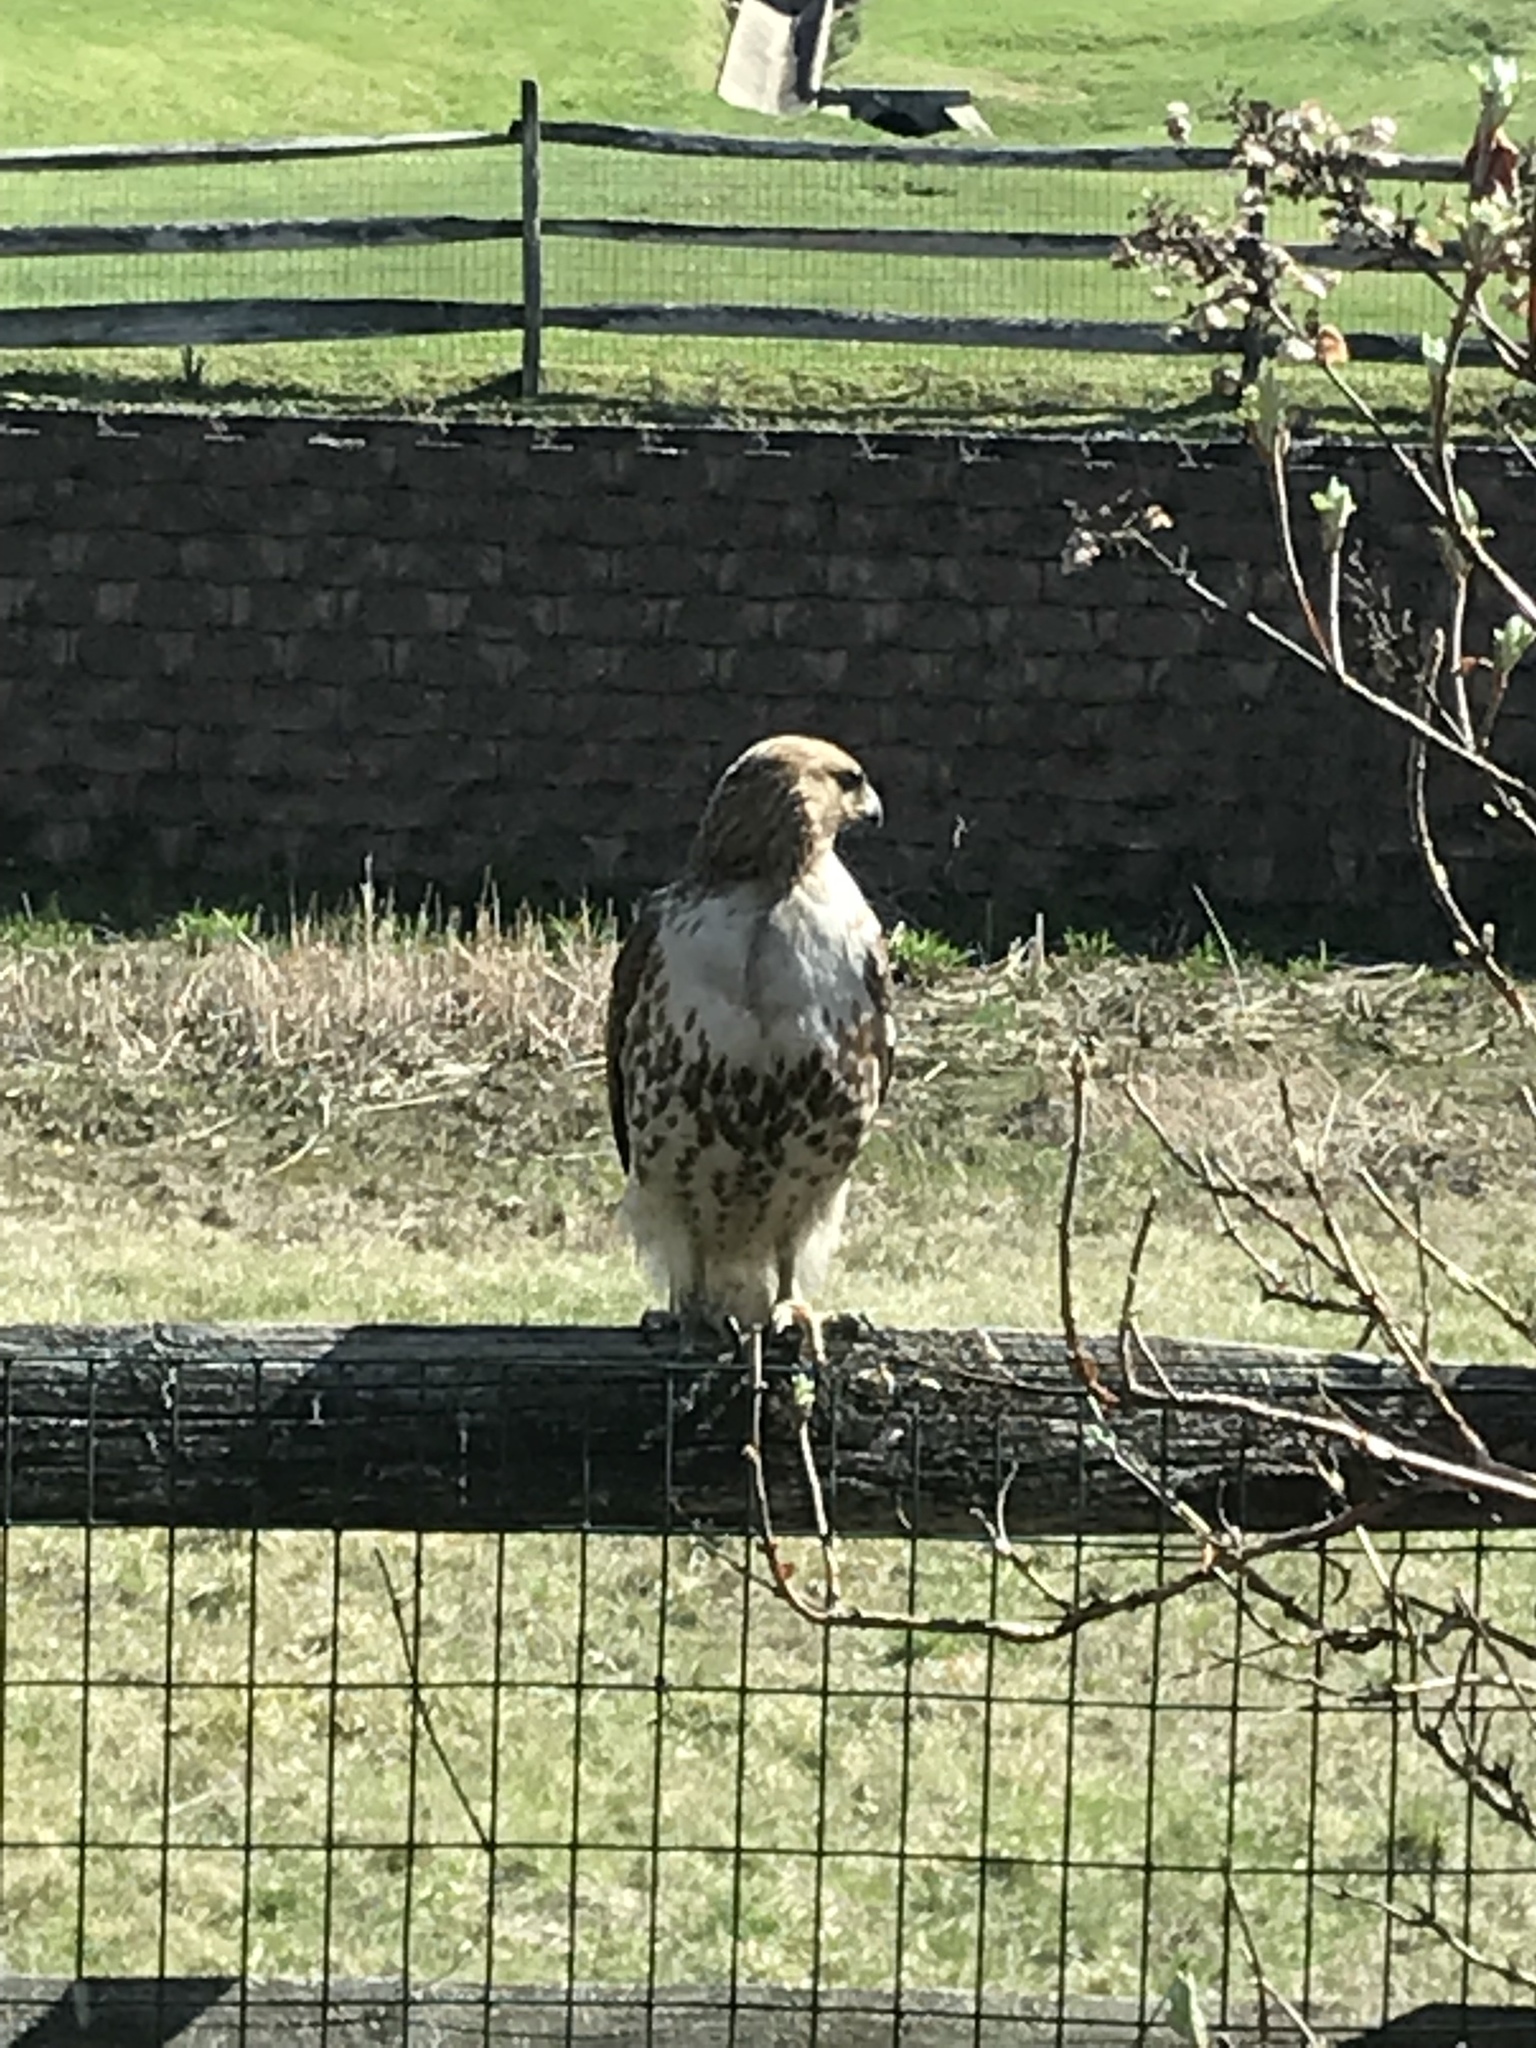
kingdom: Animalia
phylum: Chordata
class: Aves
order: Accipitriformes
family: Accipitridae
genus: Buteo
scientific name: Buteo jamaicensis
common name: Red-tailed hawk
